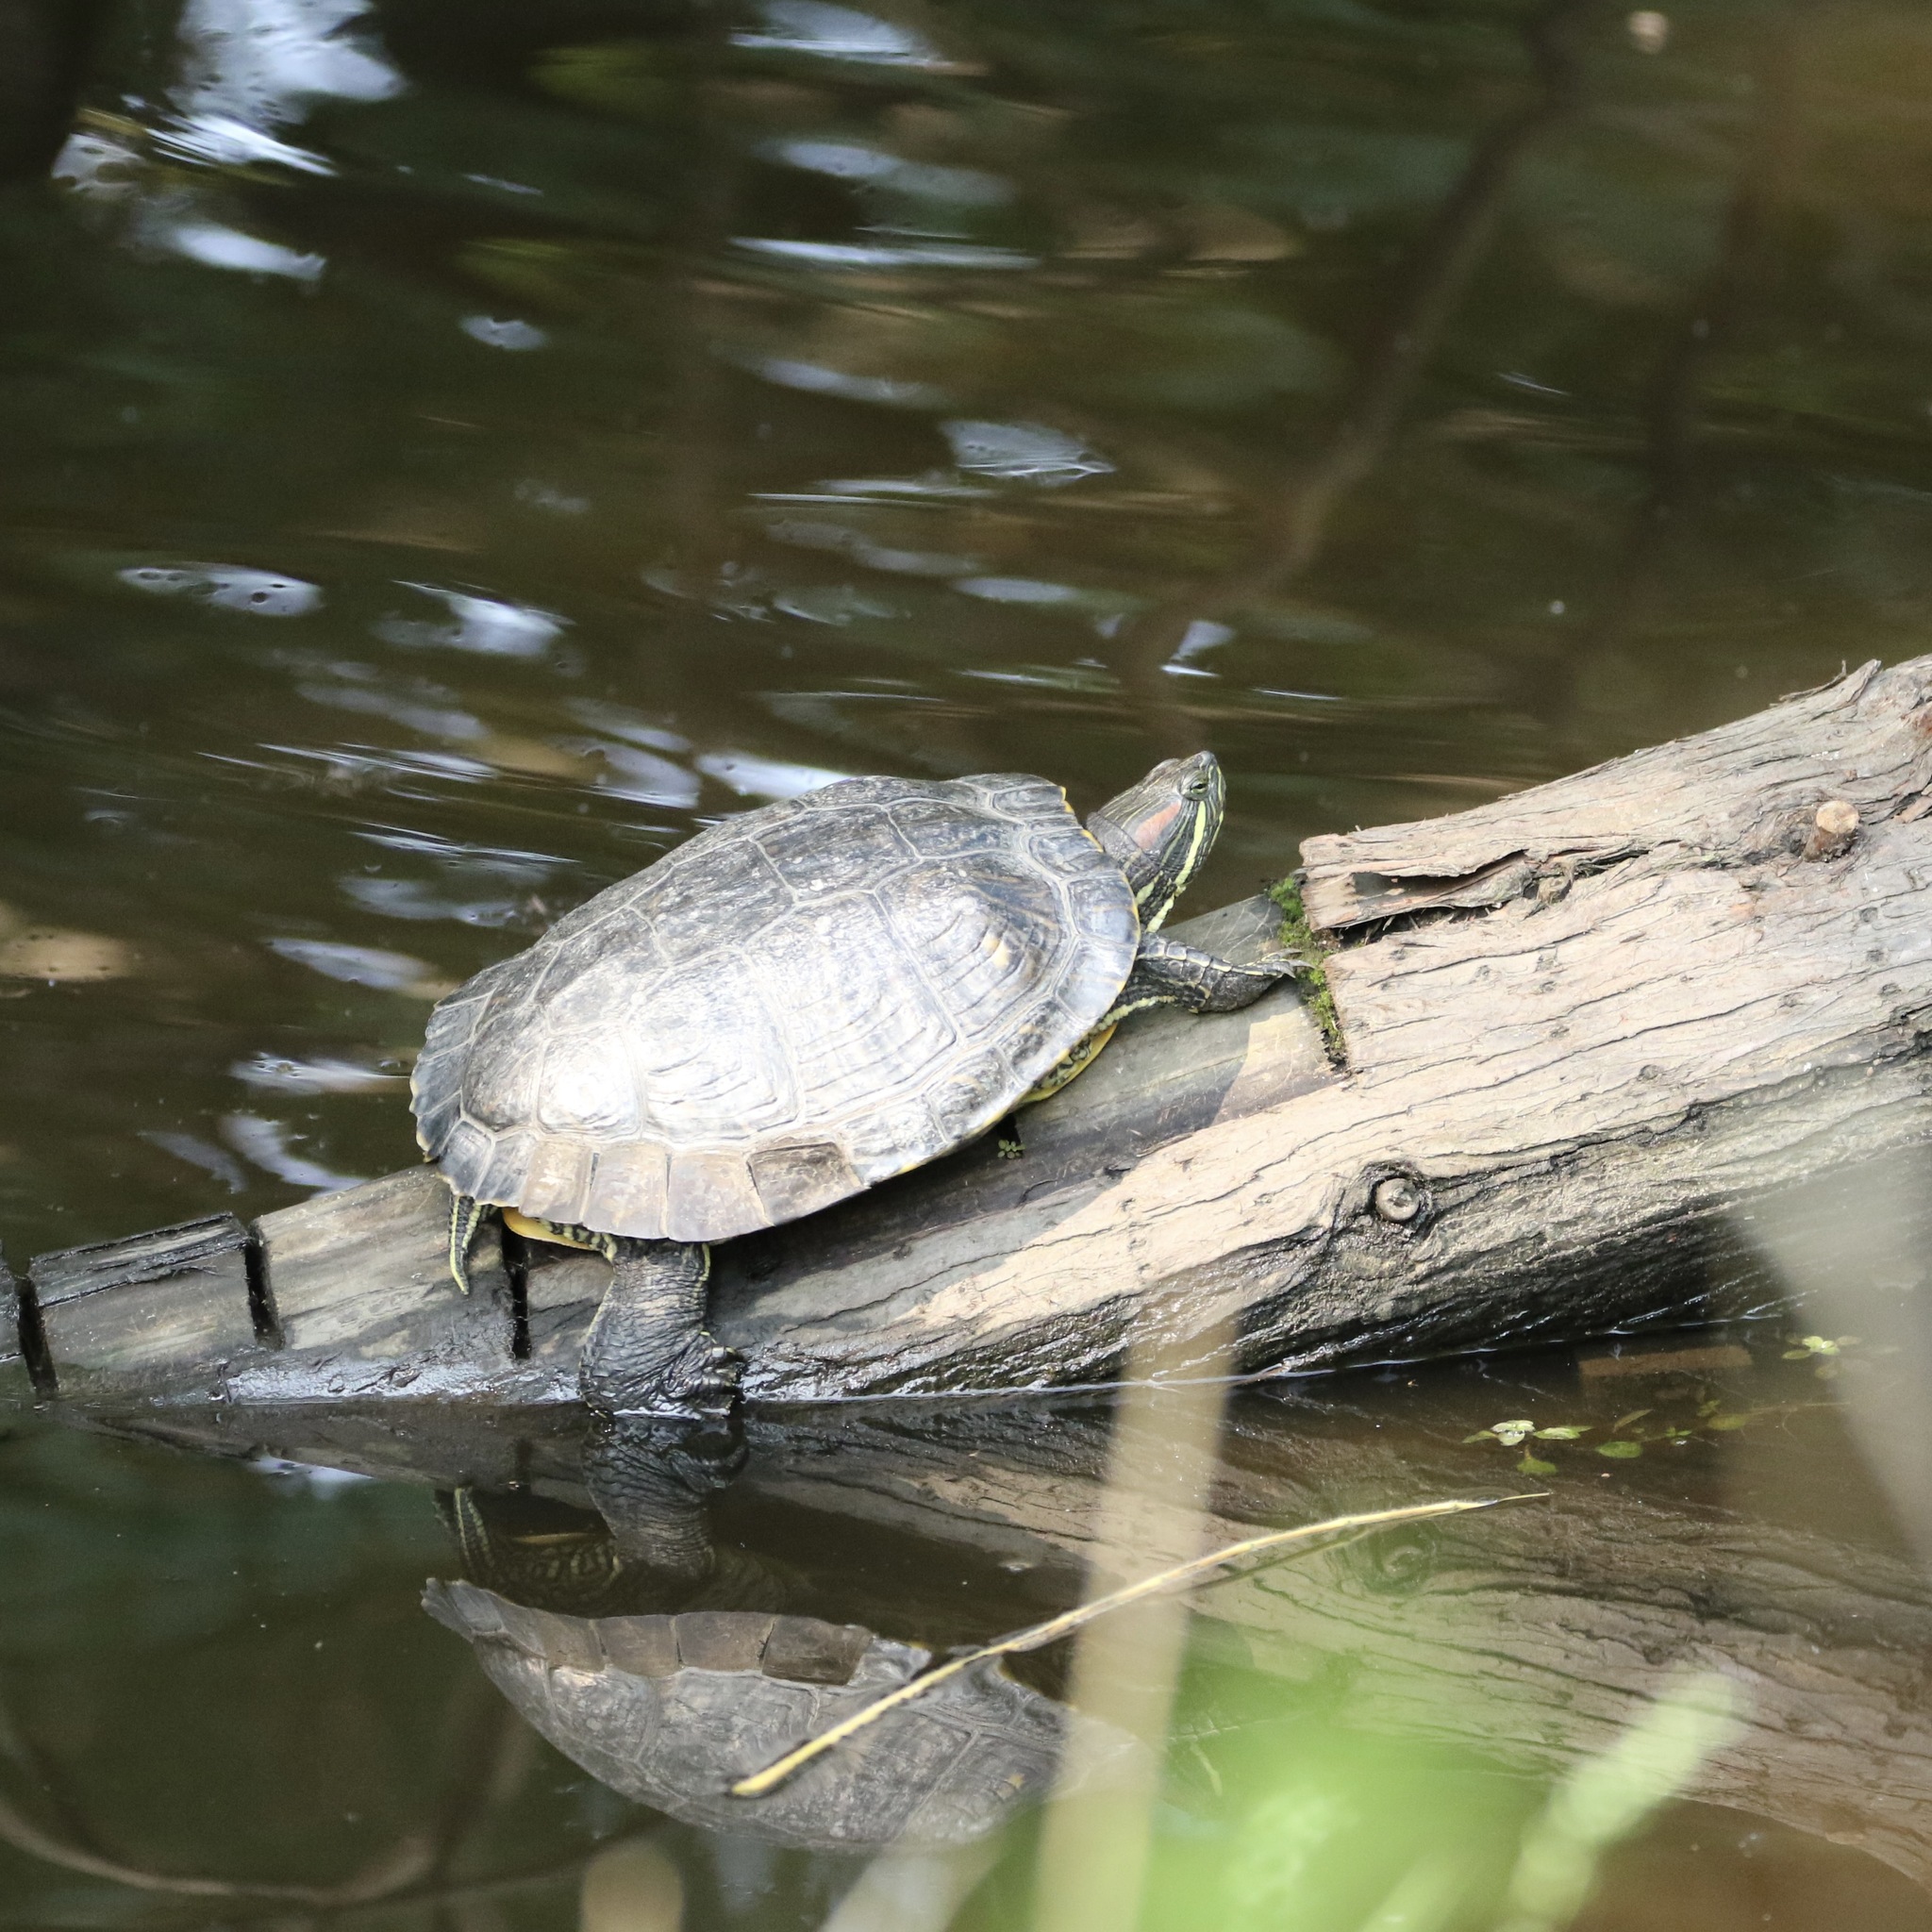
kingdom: Animalia
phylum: Chordata
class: Testudines
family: Emydidae
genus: Trachemys
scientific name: Trachemys scripta
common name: Slider
